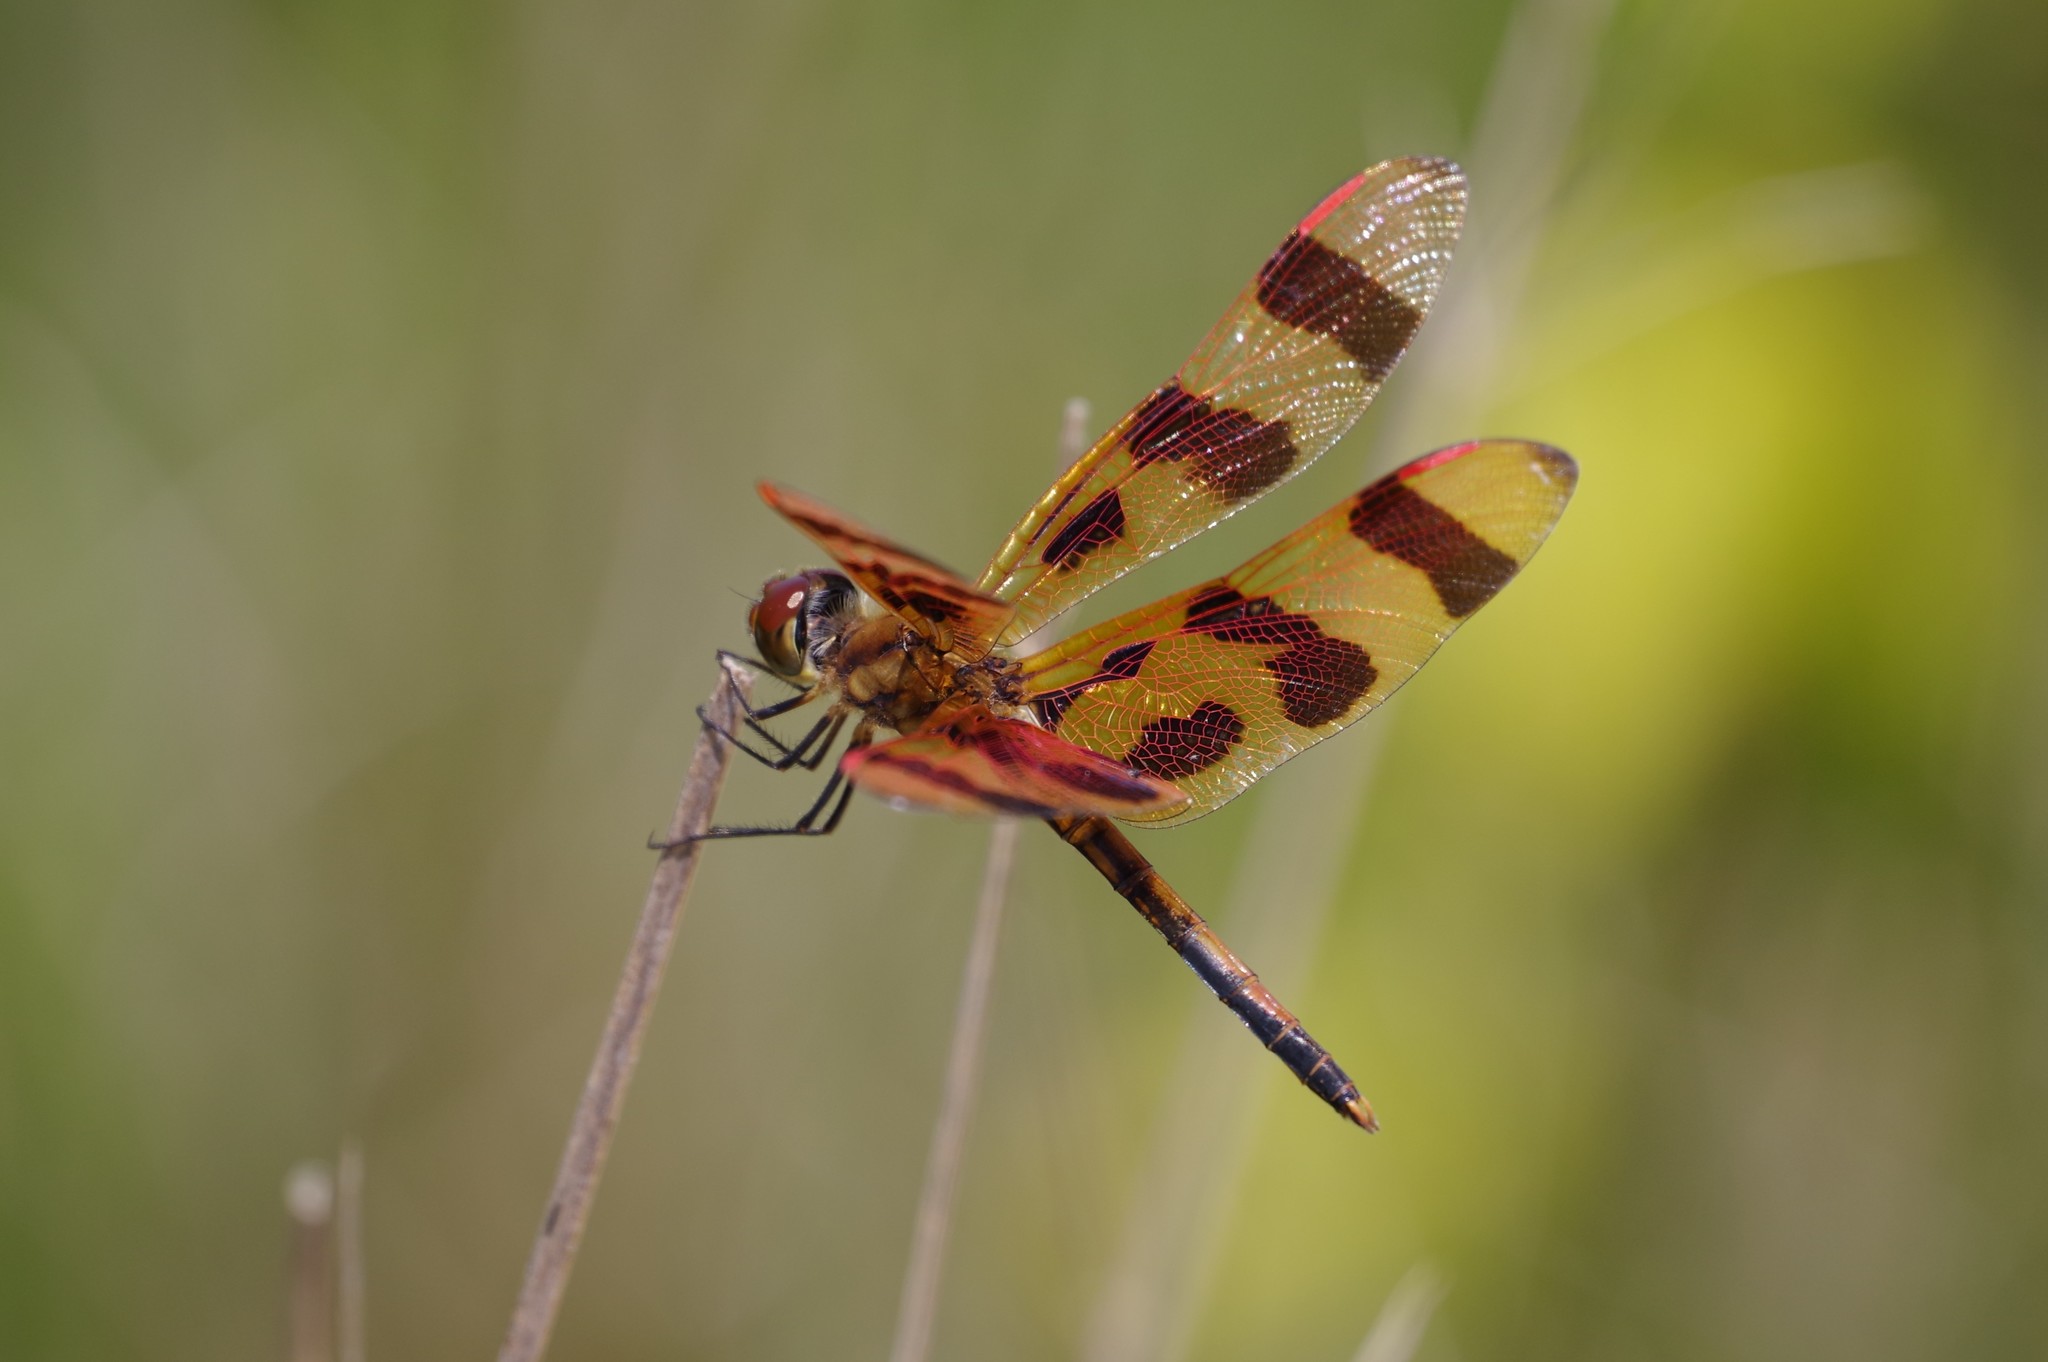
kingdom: Animalia
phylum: Arthropoda
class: Insecta
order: Odonata
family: Libellulidae
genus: Celithemis
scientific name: Celithemis eponina
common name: Halloween pennant
